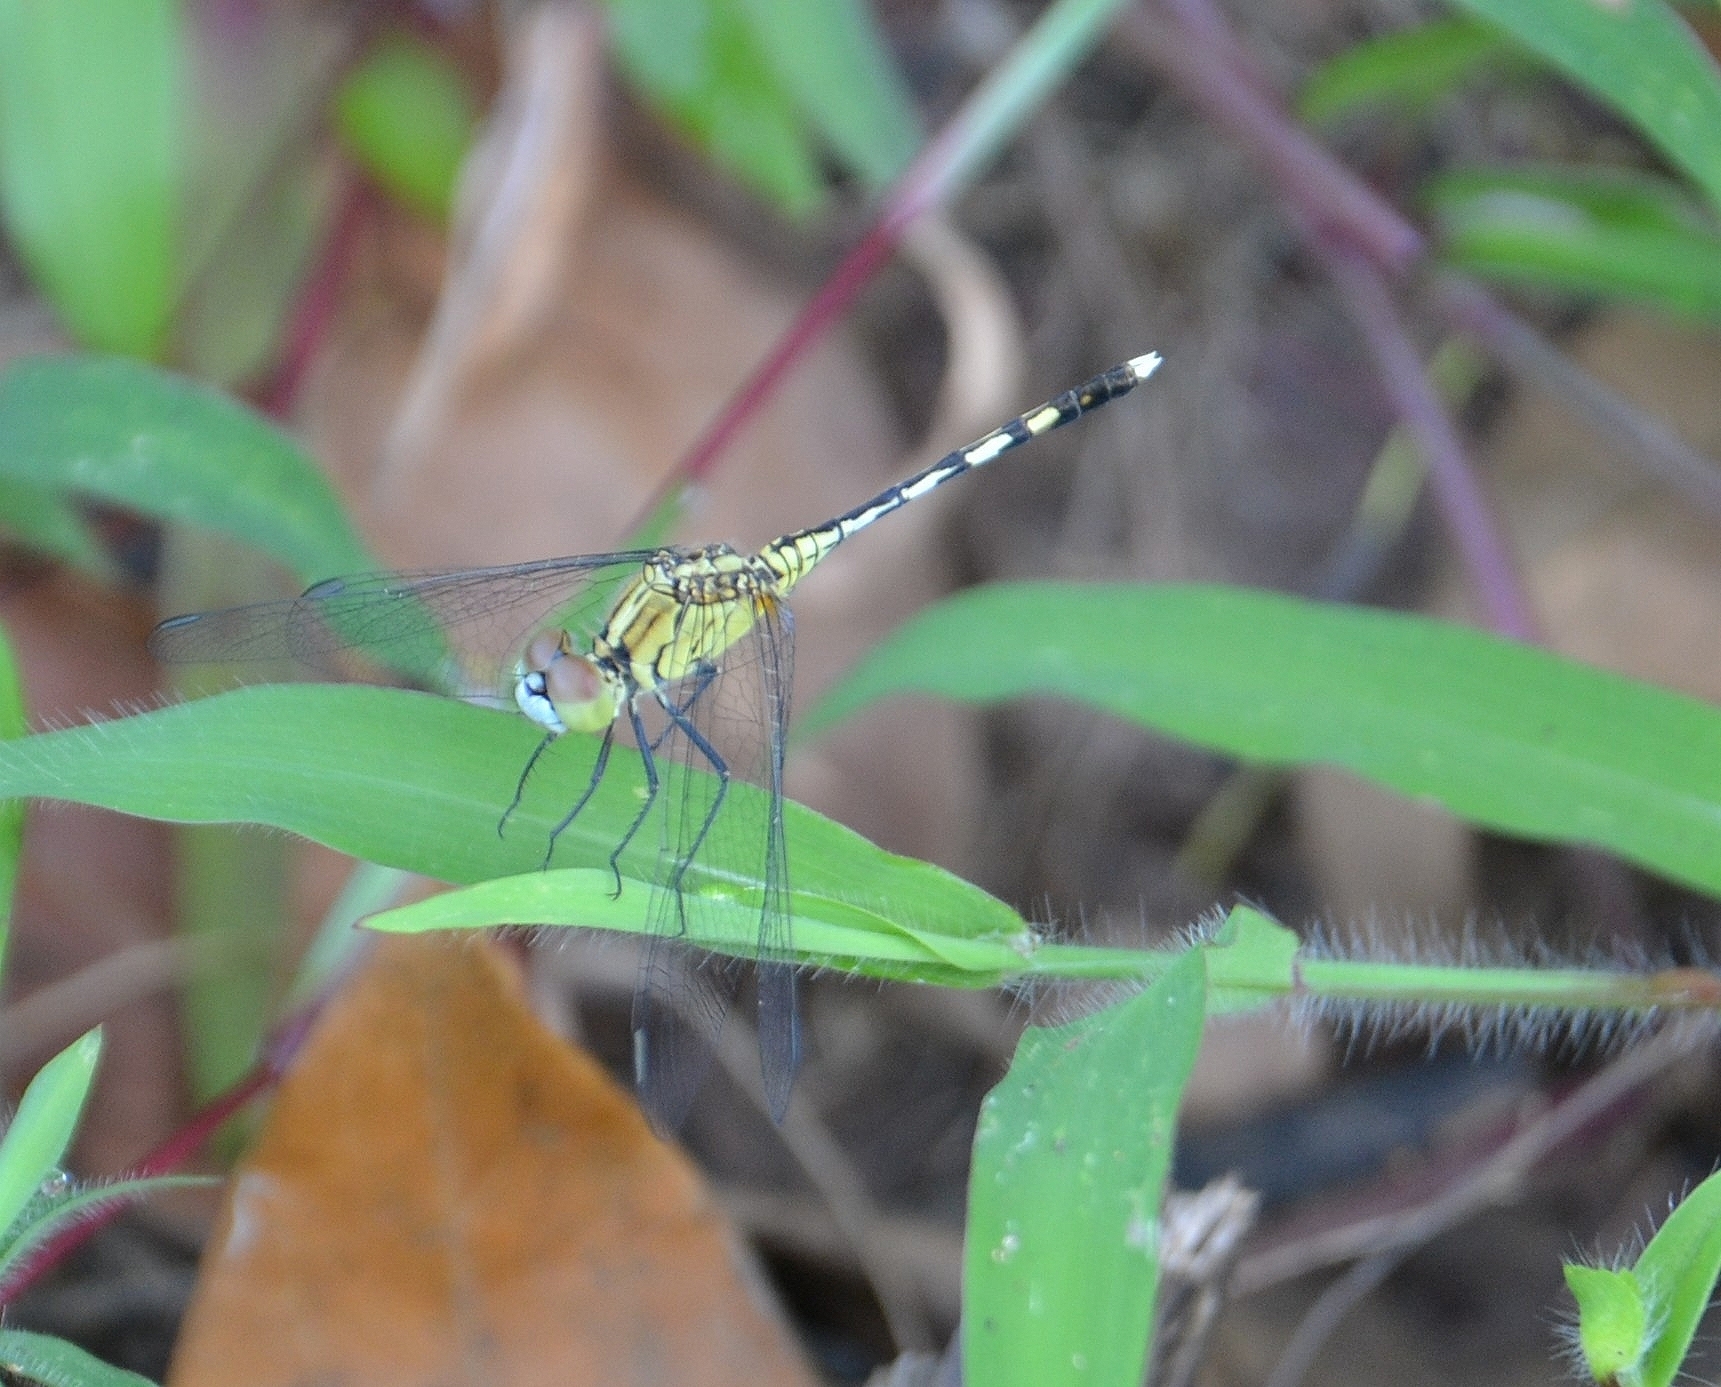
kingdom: Animalia
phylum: Arthropoda
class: Insecta
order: Odonata
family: Libellulidae
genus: Diplacodes
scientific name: Diplacodes trivialis
